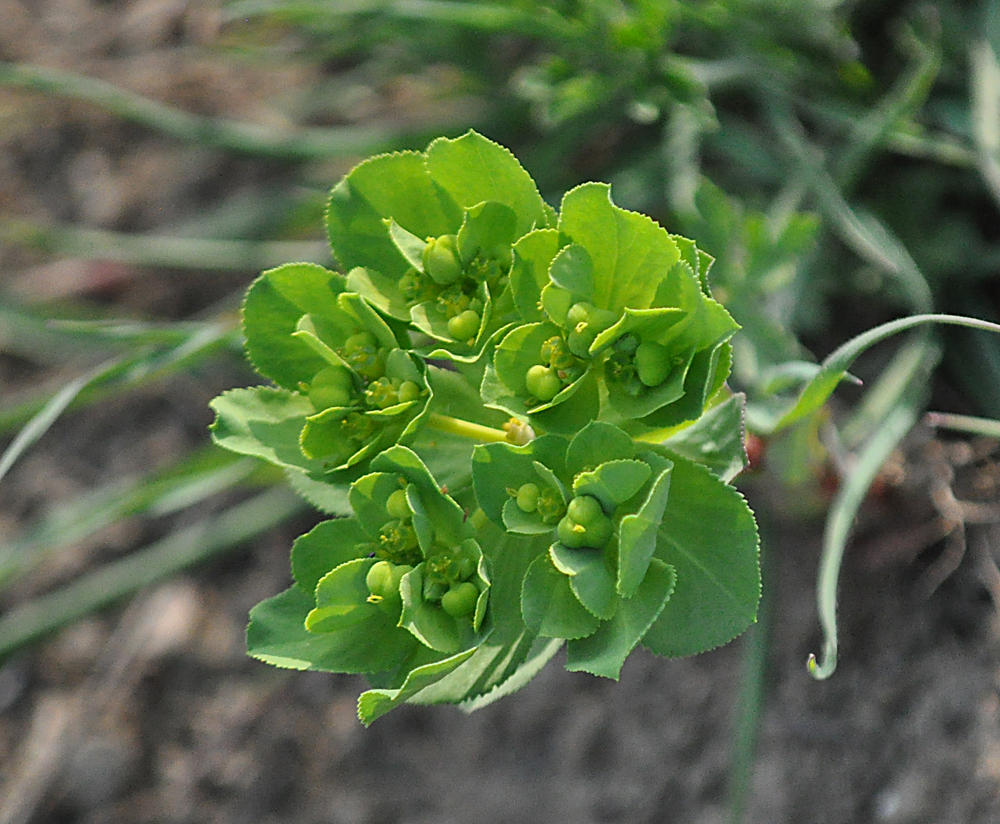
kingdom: Plantae
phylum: Tracheophyta
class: Magnoliopsida
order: Malpighiales
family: Euphorbiaceae
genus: Euphorbia
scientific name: Euphorbia helioscopia
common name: Sun spurge
